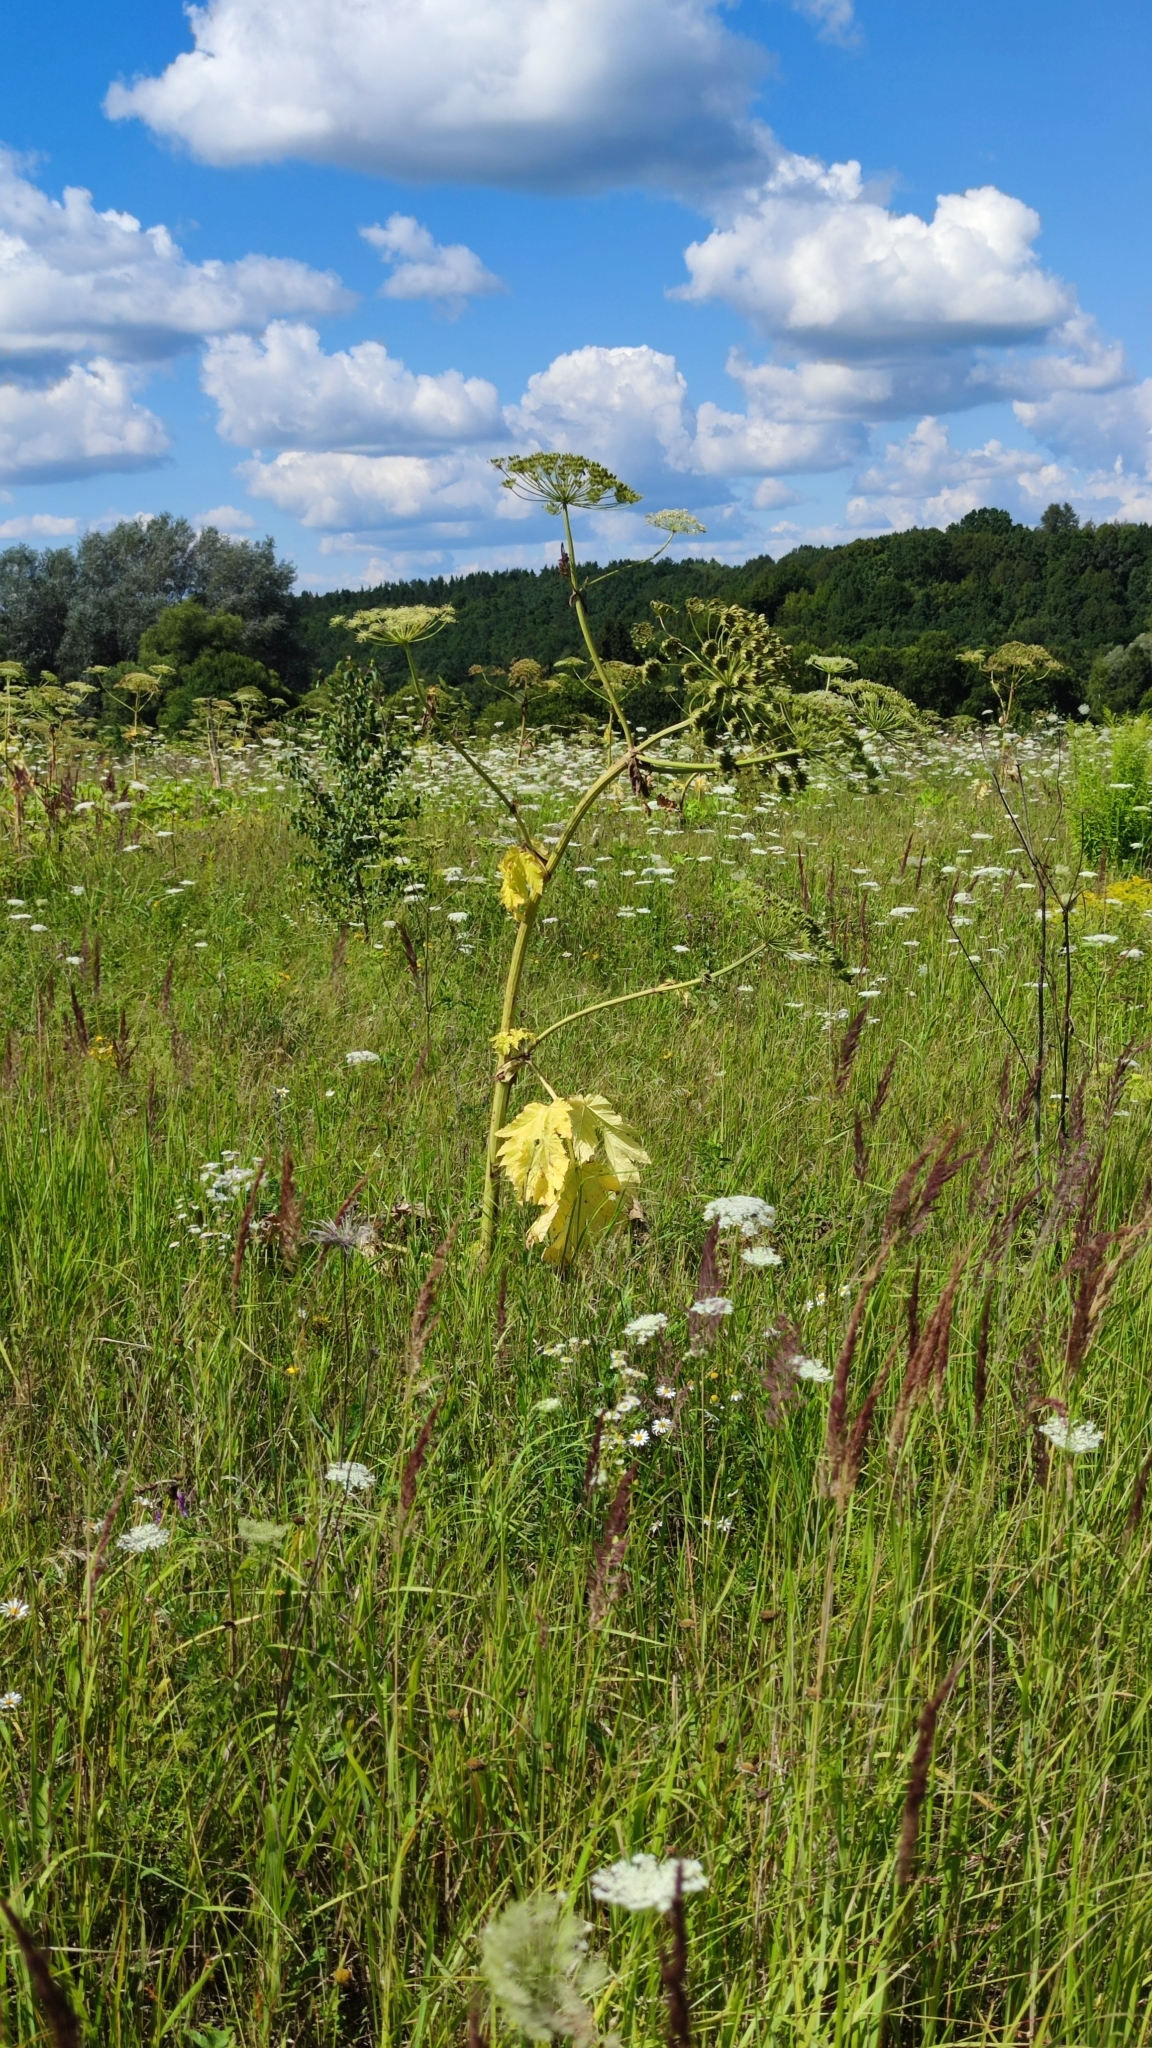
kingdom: Plantae
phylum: Tracheophyta
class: Magnoliopsida
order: Apiales
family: Apiaceae
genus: Heracleum
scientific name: Heracleum sosnowskyi
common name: Sosnowsky's hogweed
